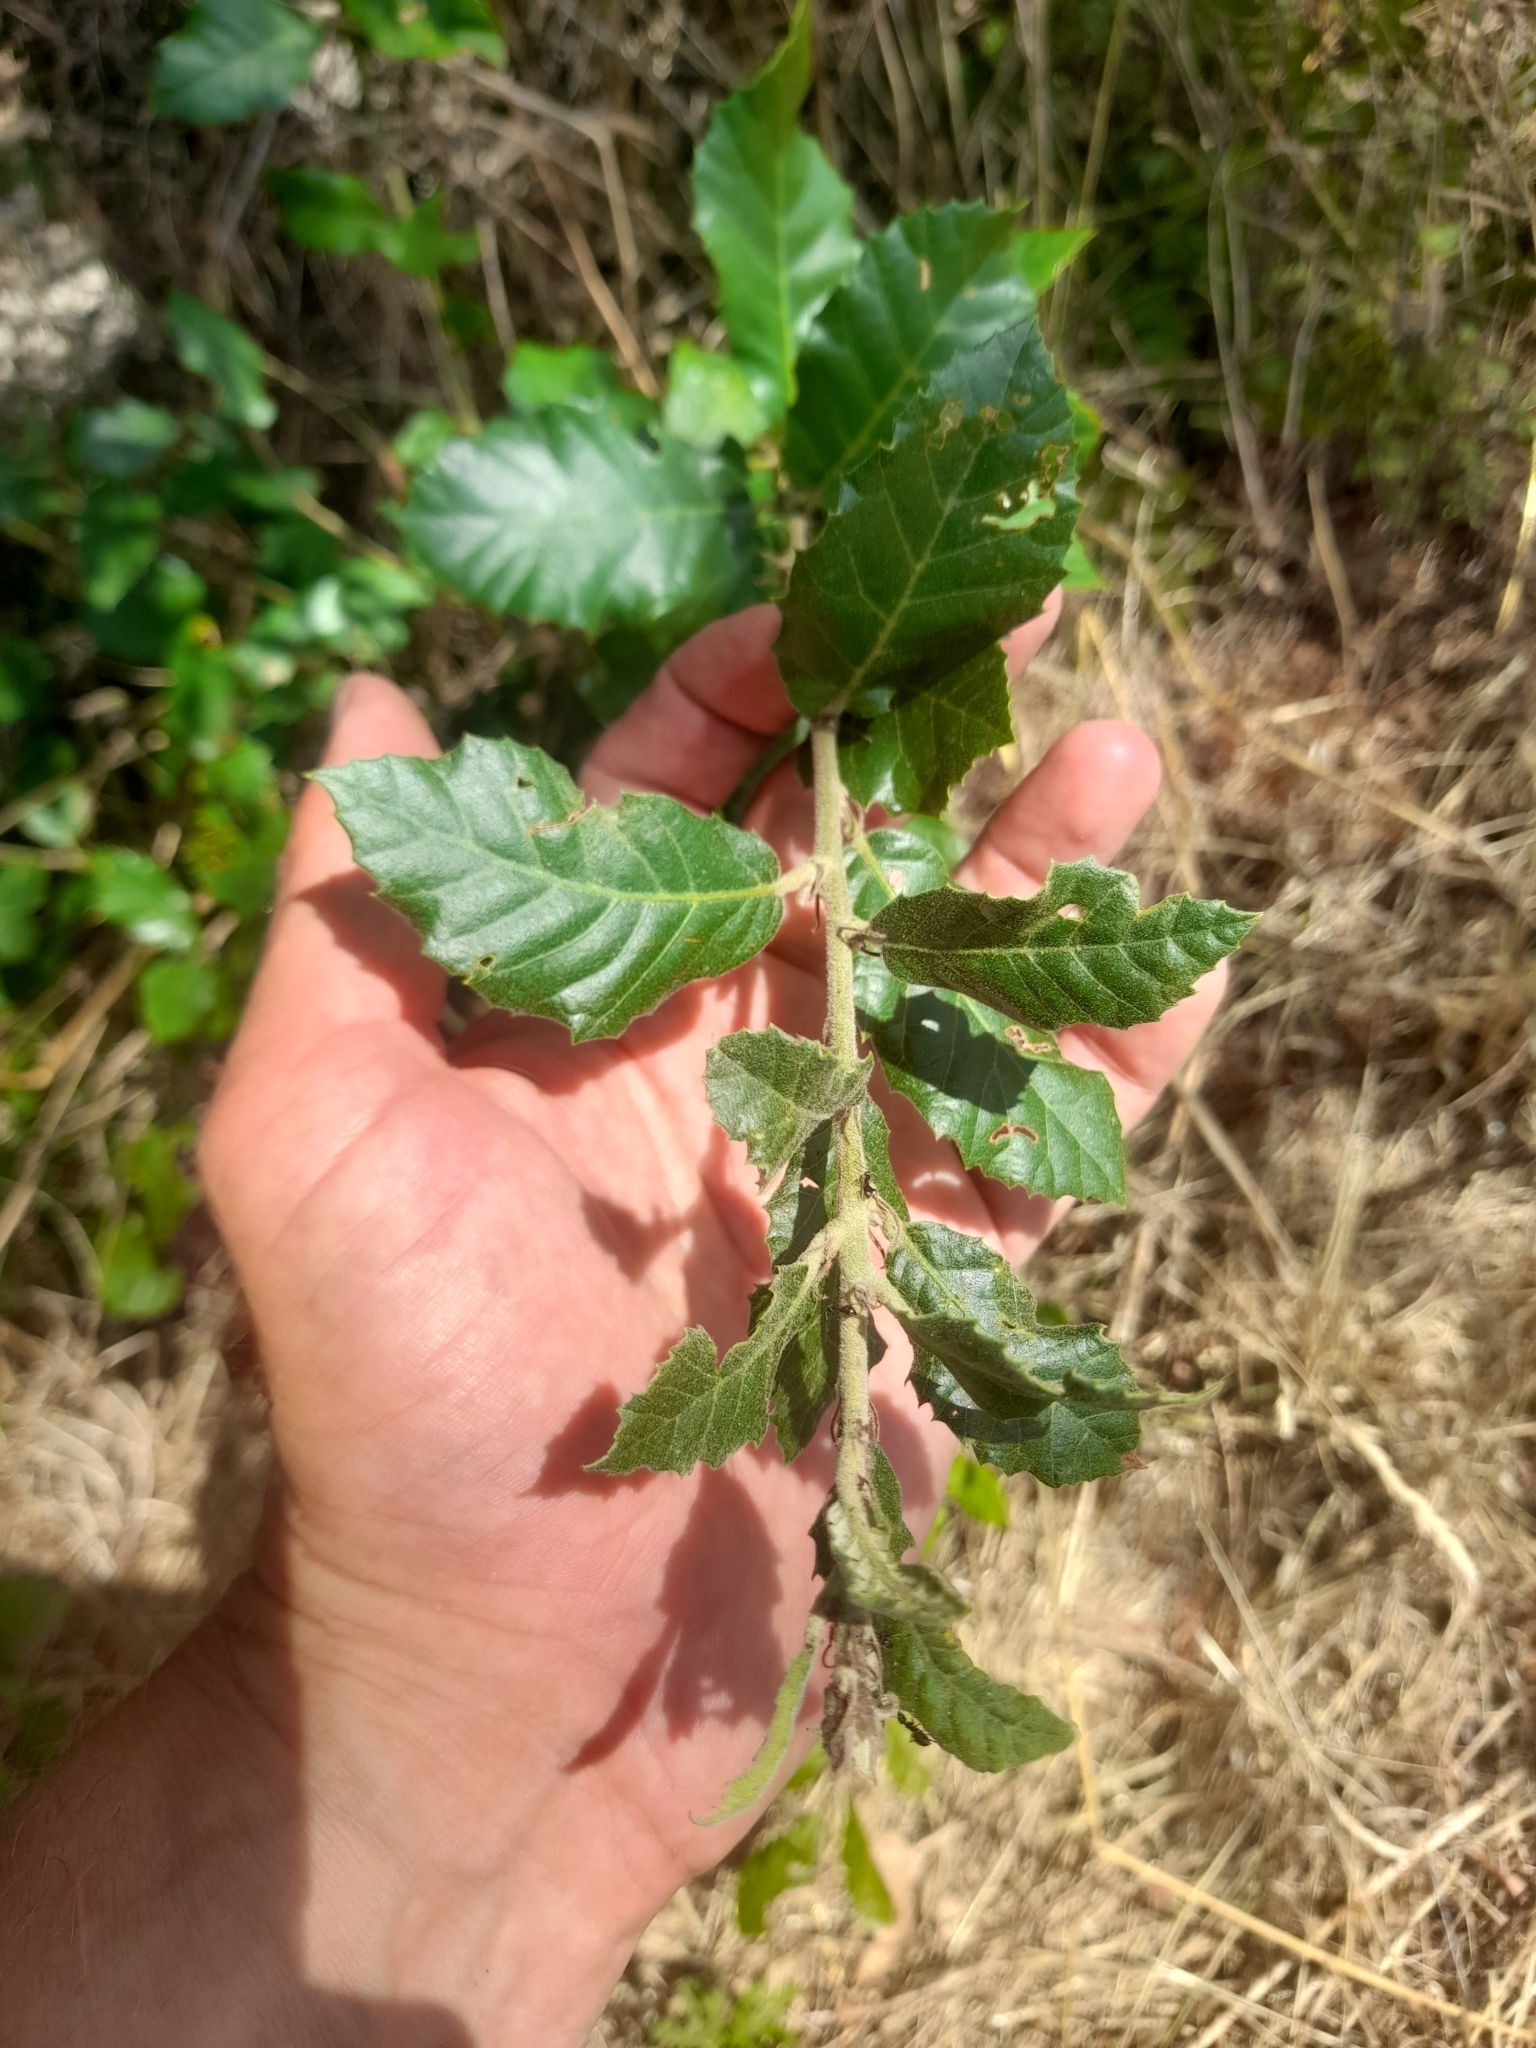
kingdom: Plantae
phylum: Tracheophyta
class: Magnoliopsida
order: Fagales
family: Fagaceae
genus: Quercus
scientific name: Quercus ilex
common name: Evergreen oak
